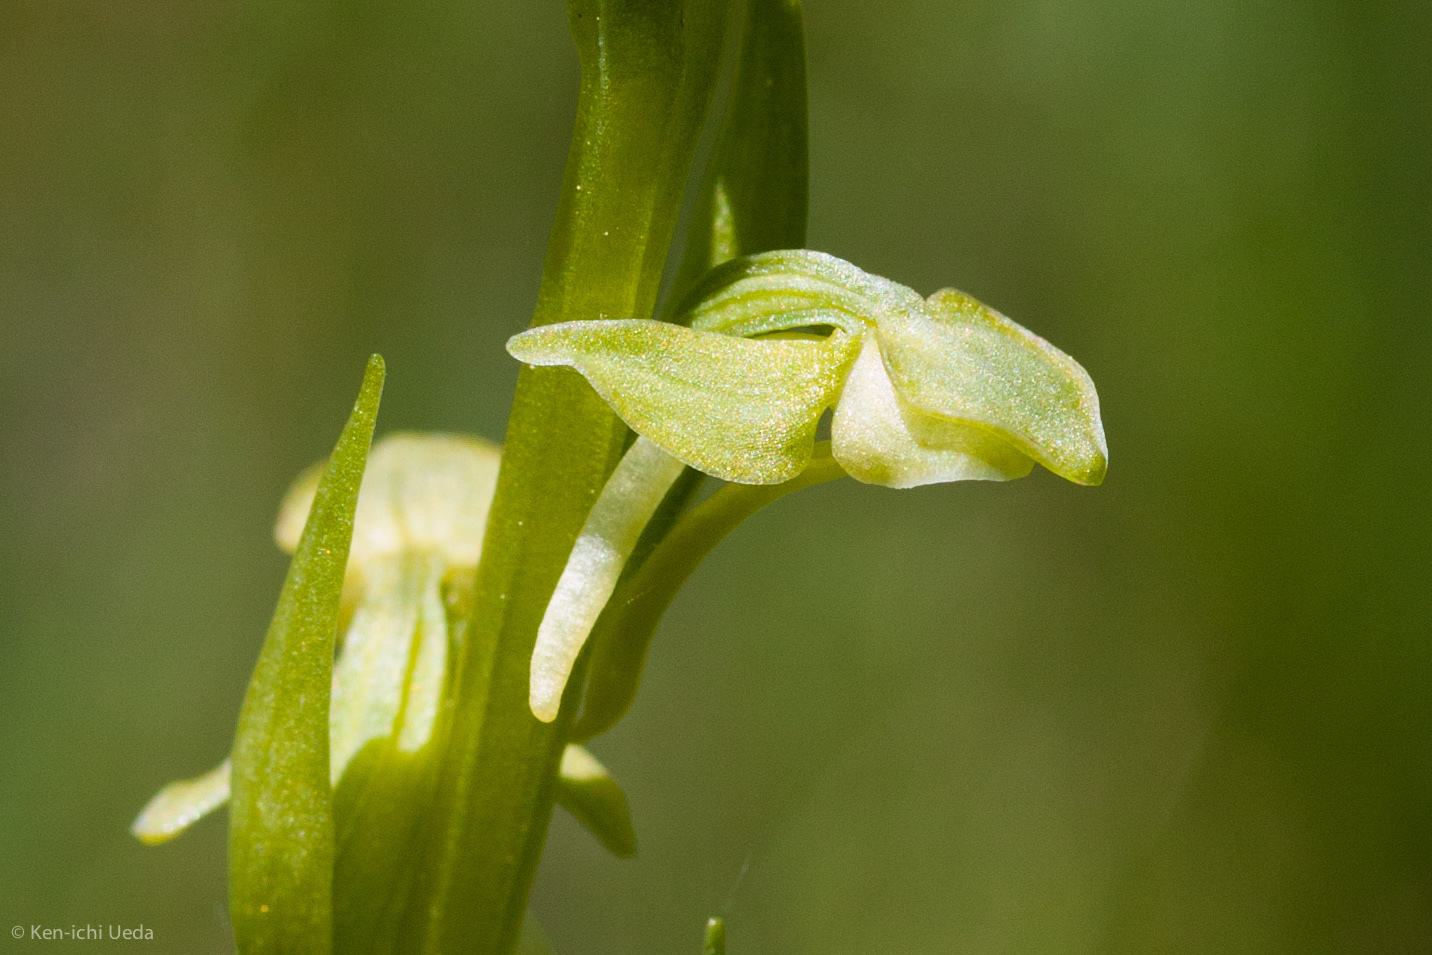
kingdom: Plantae
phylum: Tracheophyta
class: Liliopsida
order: Asparagales
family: Orchidaceae
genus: Platanthera
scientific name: Platanthera sparsiflora
